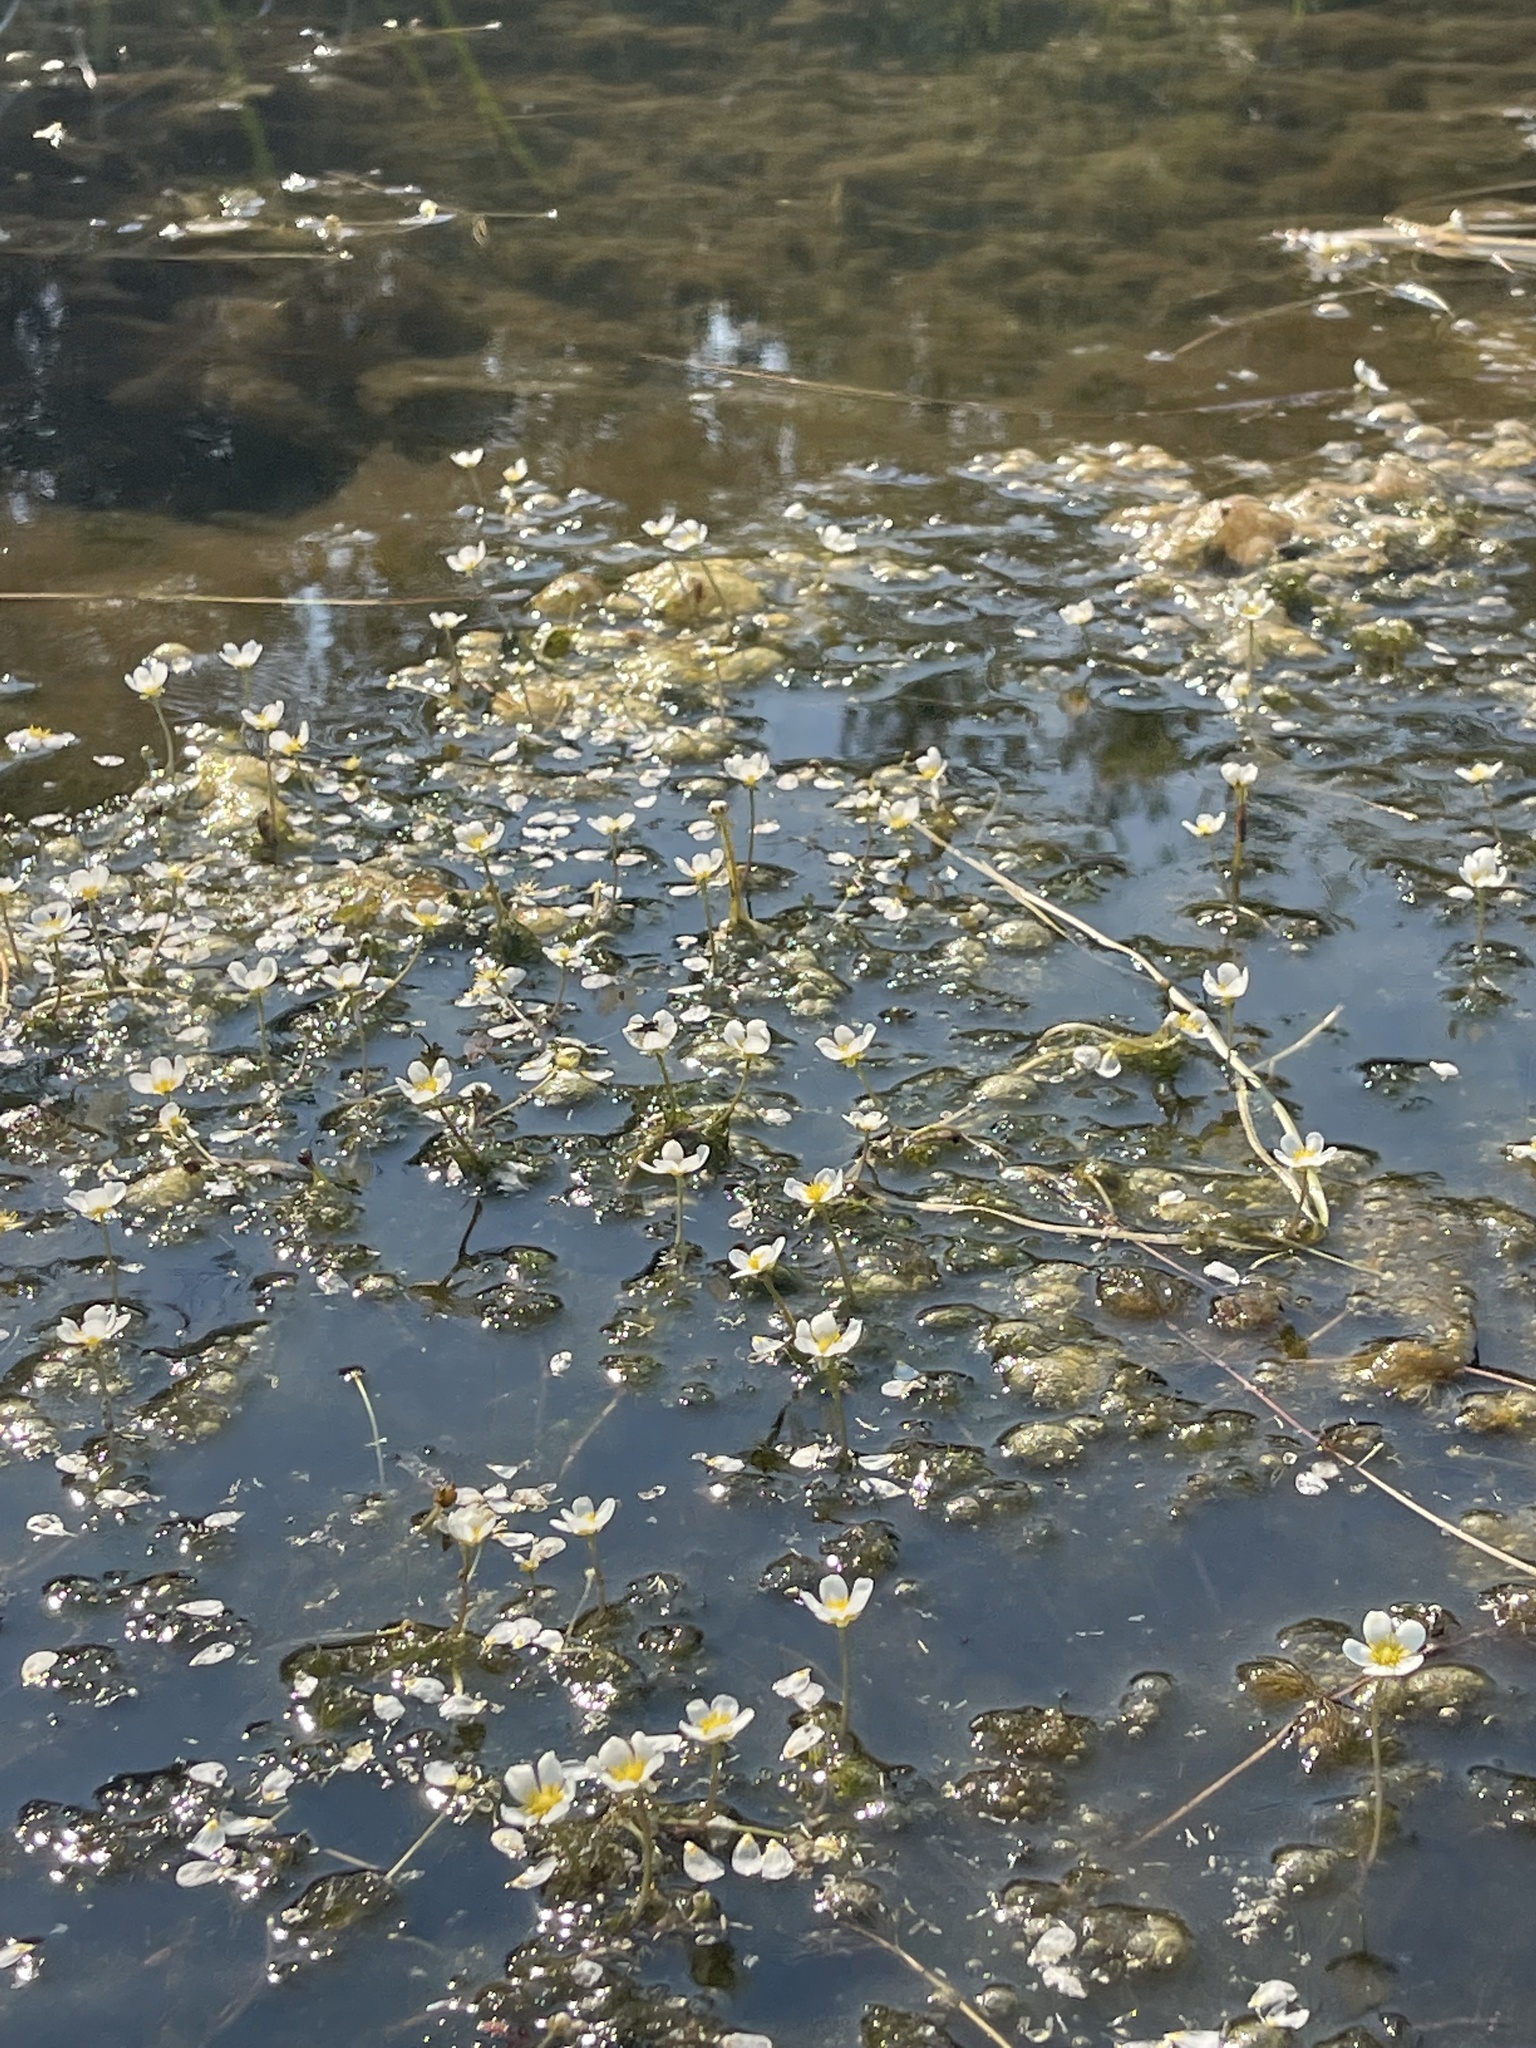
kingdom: Plantae
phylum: Tracheophyta
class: Magnoliopsida
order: Ranunculales
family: Ranunculaceae
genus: Ranunculus
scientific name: Ranunculus aquatilis
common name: Common water-crowfoot
